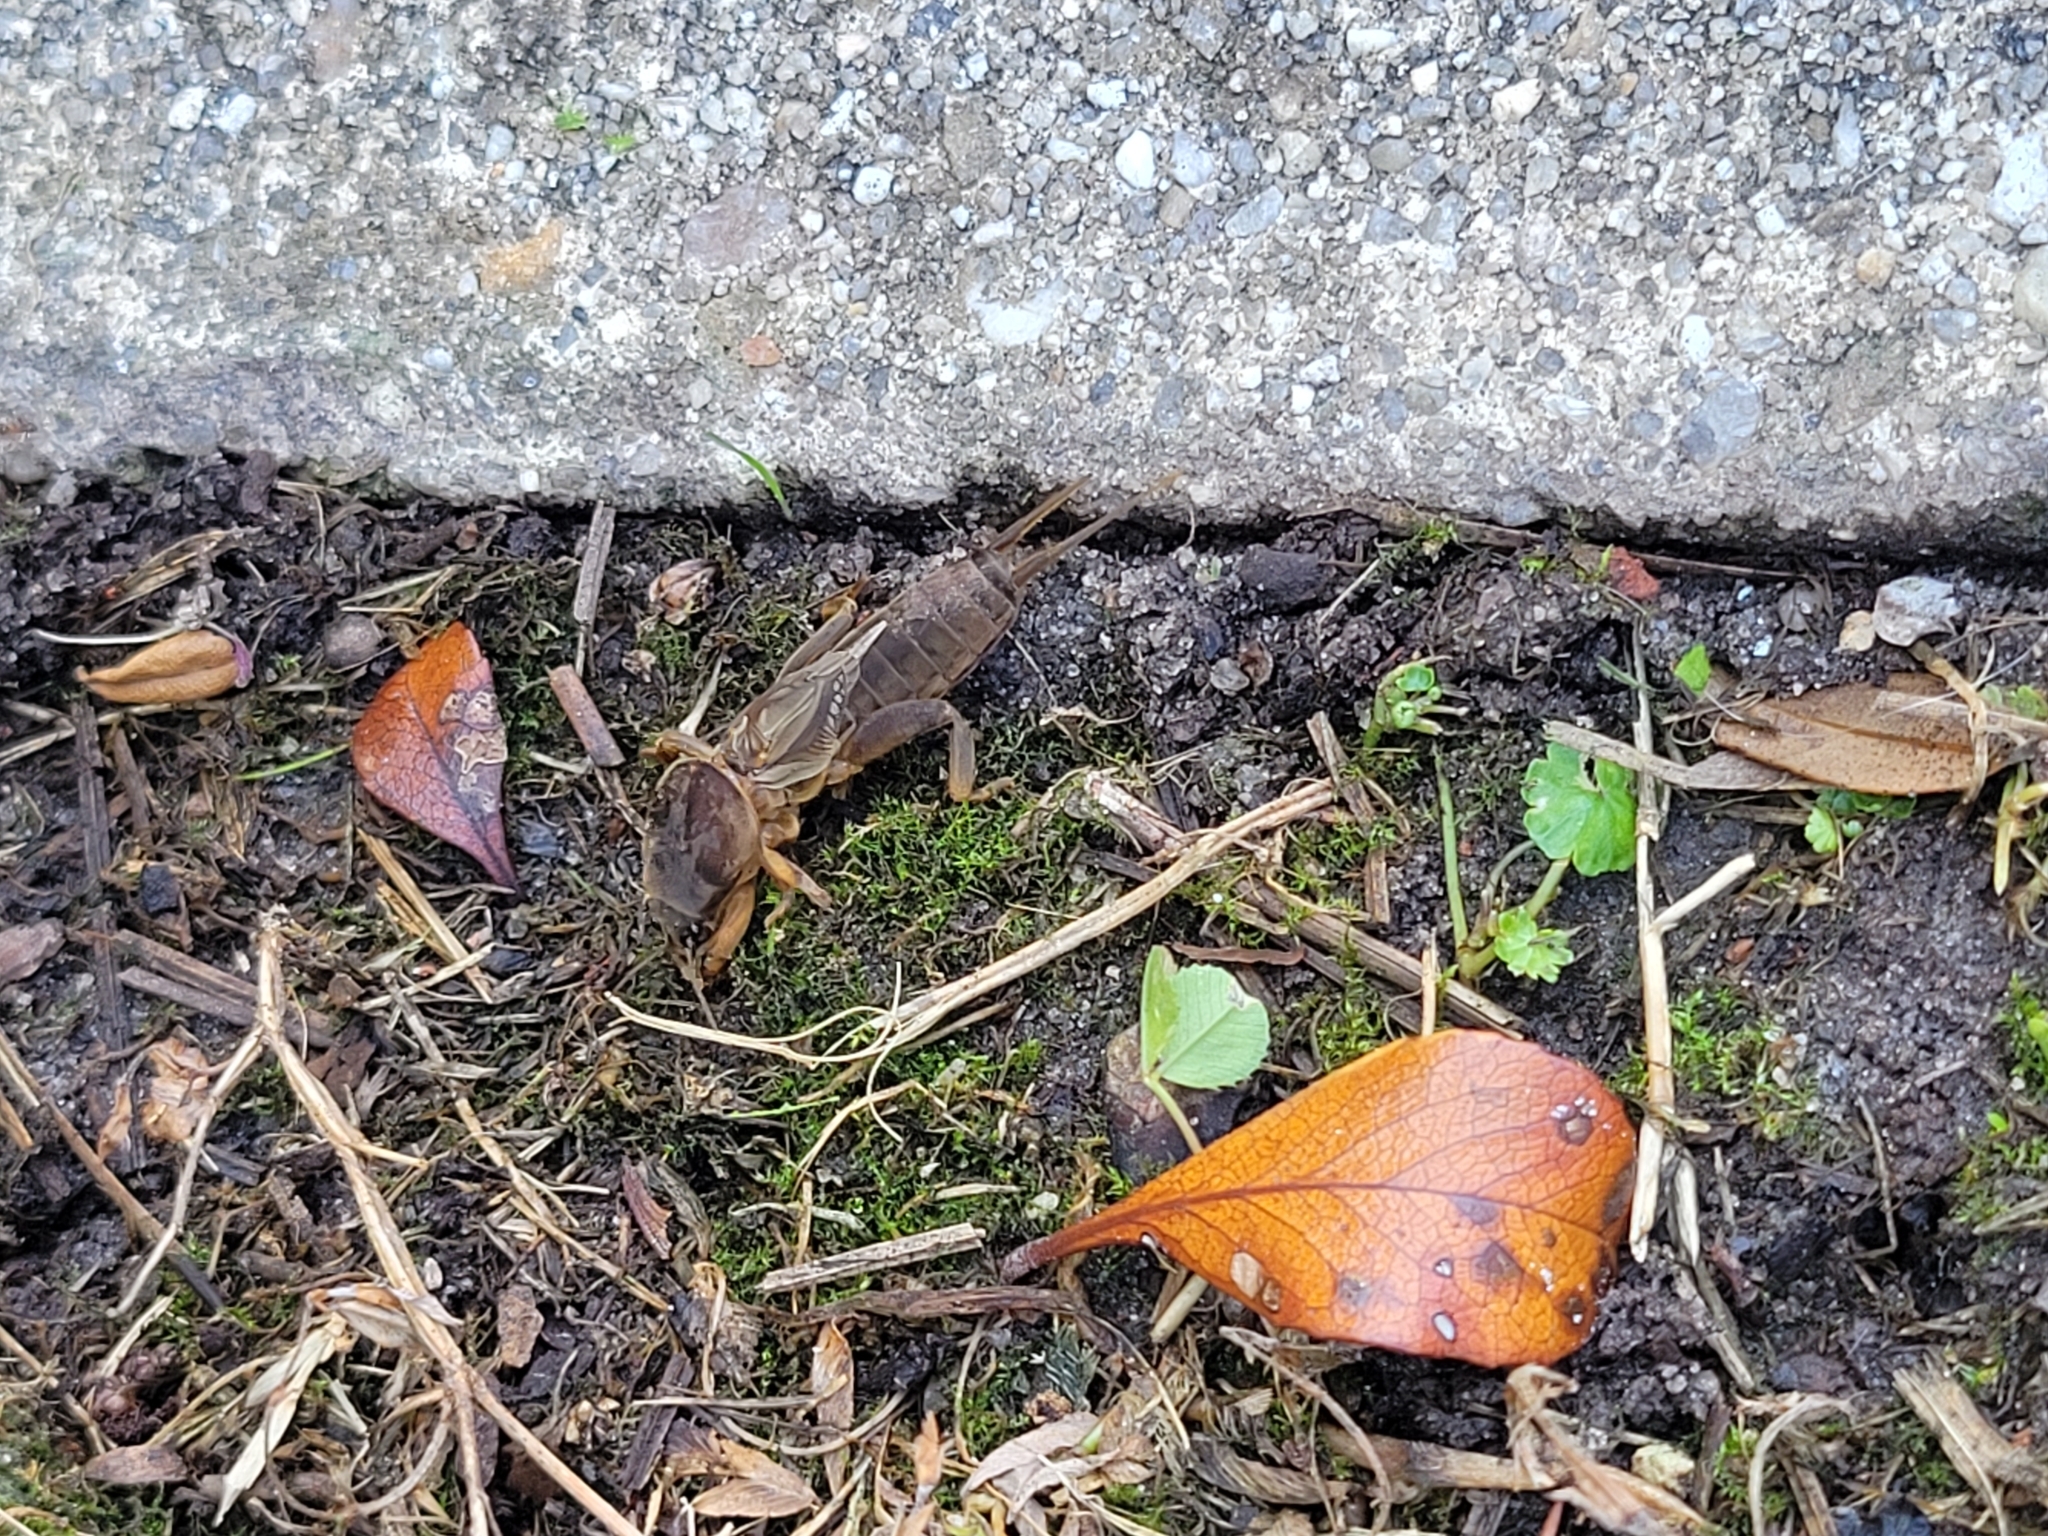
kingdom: Animalia
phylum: Arthropoda
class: Insecta
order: Orthoptera
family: Gryllotalpidae
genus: Neocurtilla
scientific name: Neocurtilla hexadactyla
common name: Northern mole cricket
